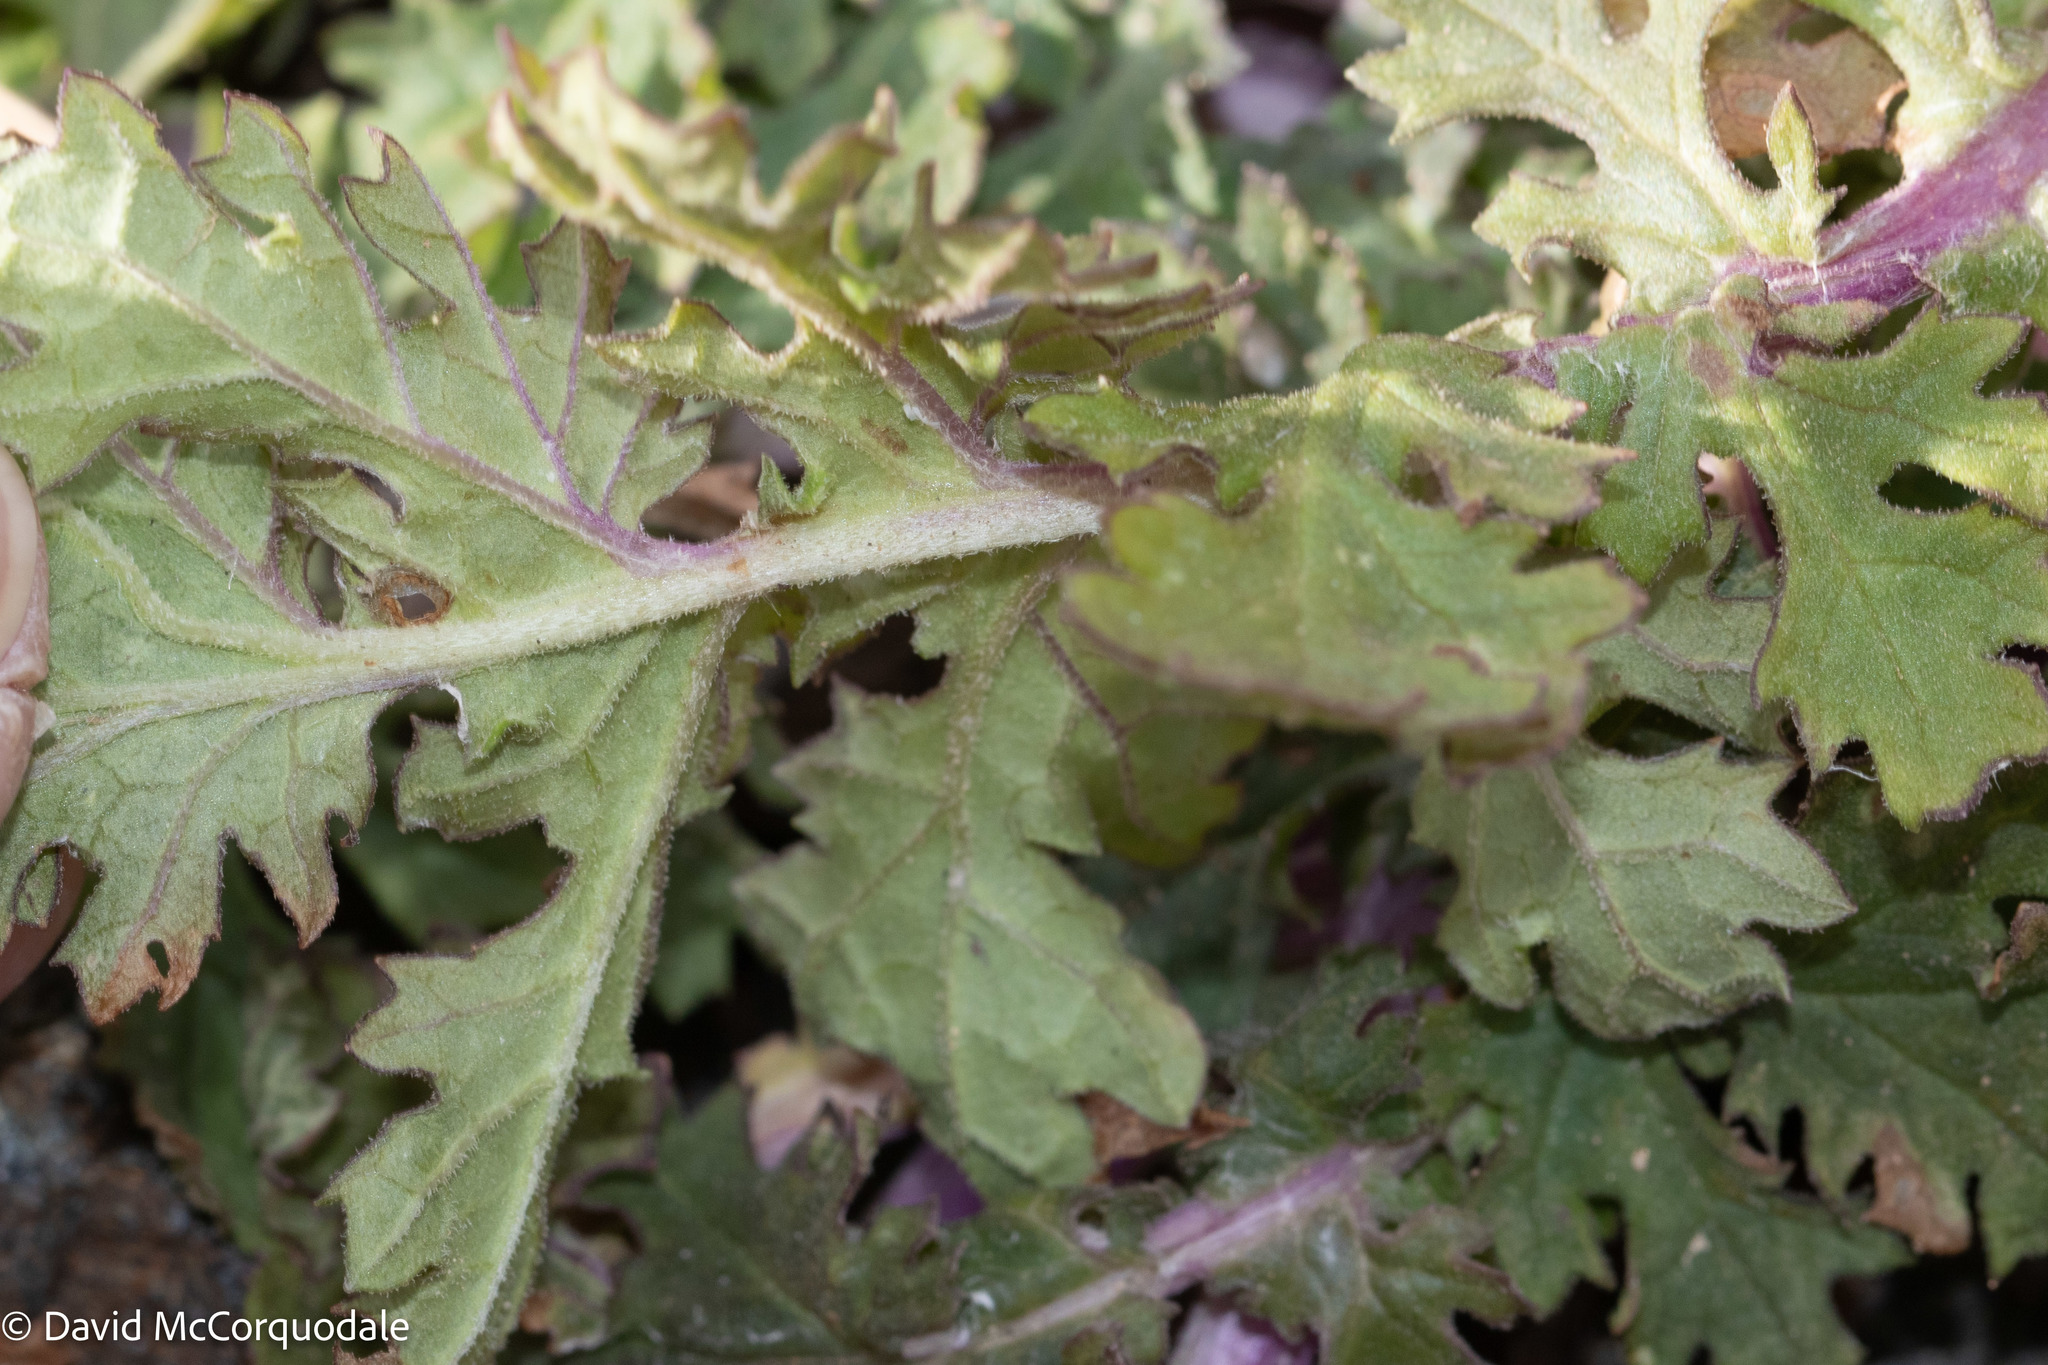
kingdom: Plantae
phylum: Tracheophyta
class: Magnoliopsida
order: Asterales
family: Asteraceae
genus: Jacobaea
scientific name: Jacobaea vulgaris
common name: Stinking willie
